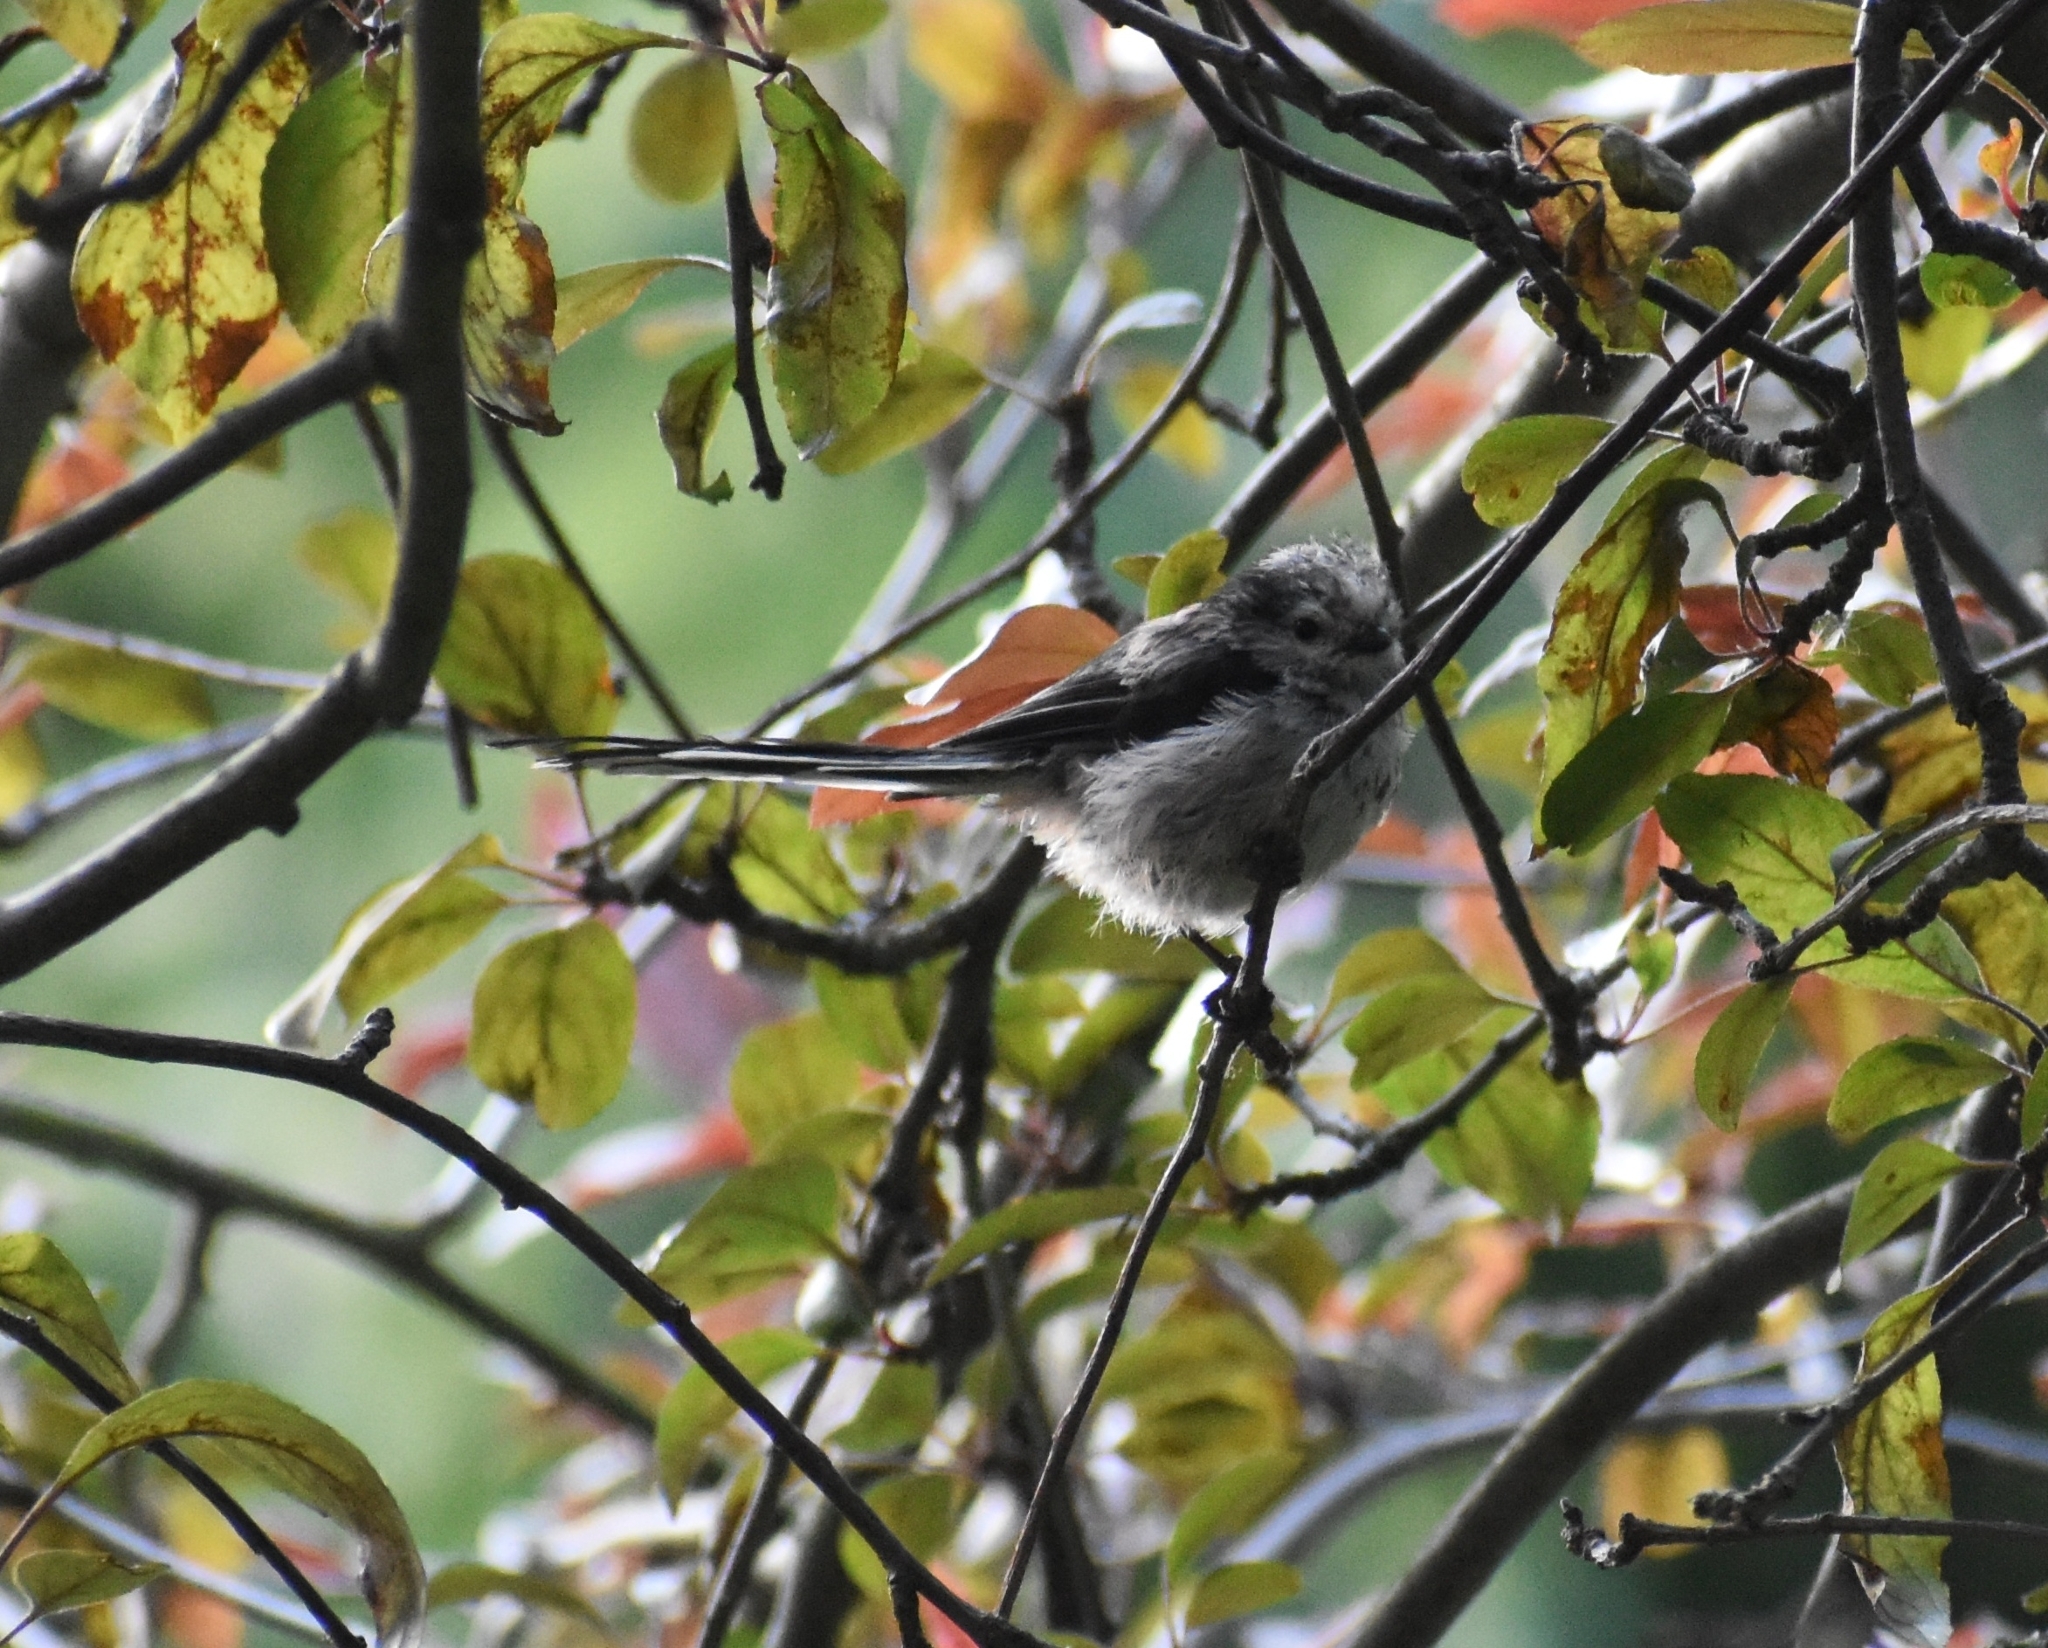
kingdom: Animalia
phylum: Chordata
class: Aves
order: Passeriformes
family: Aegithalidae
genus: Aegithalos
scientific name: Aegithalos caudatus
